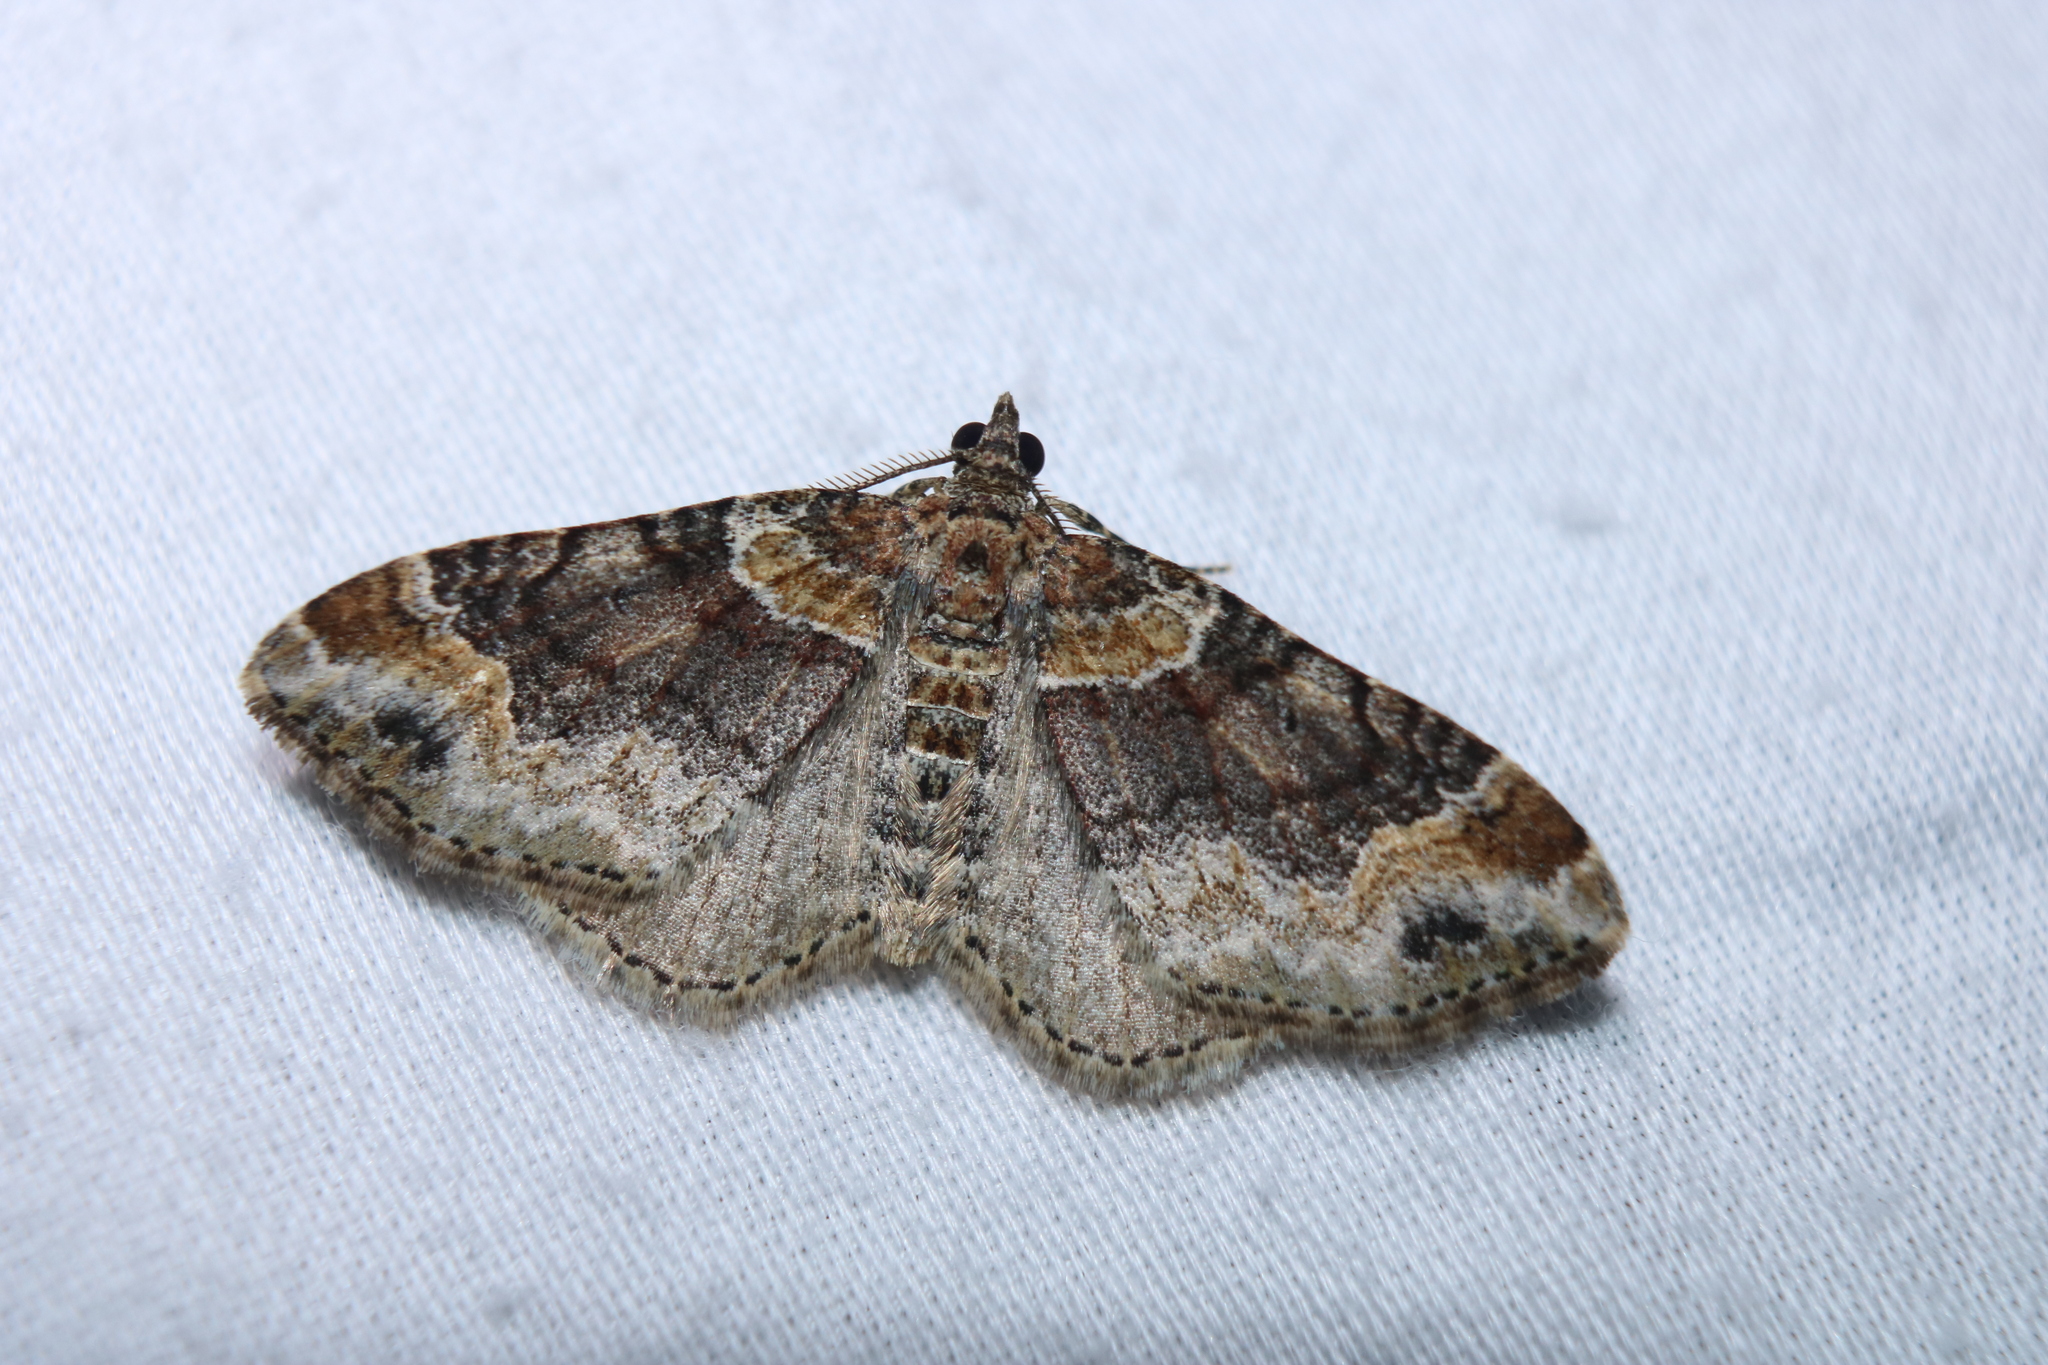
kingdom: Animalia
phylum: Arthropoda
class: Insecta
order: Lepidoptera
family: Geometridae
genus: Xanthorhoe
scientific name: Xanthorhoe ferrugata
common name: Dark-barred twin-spot carpet
